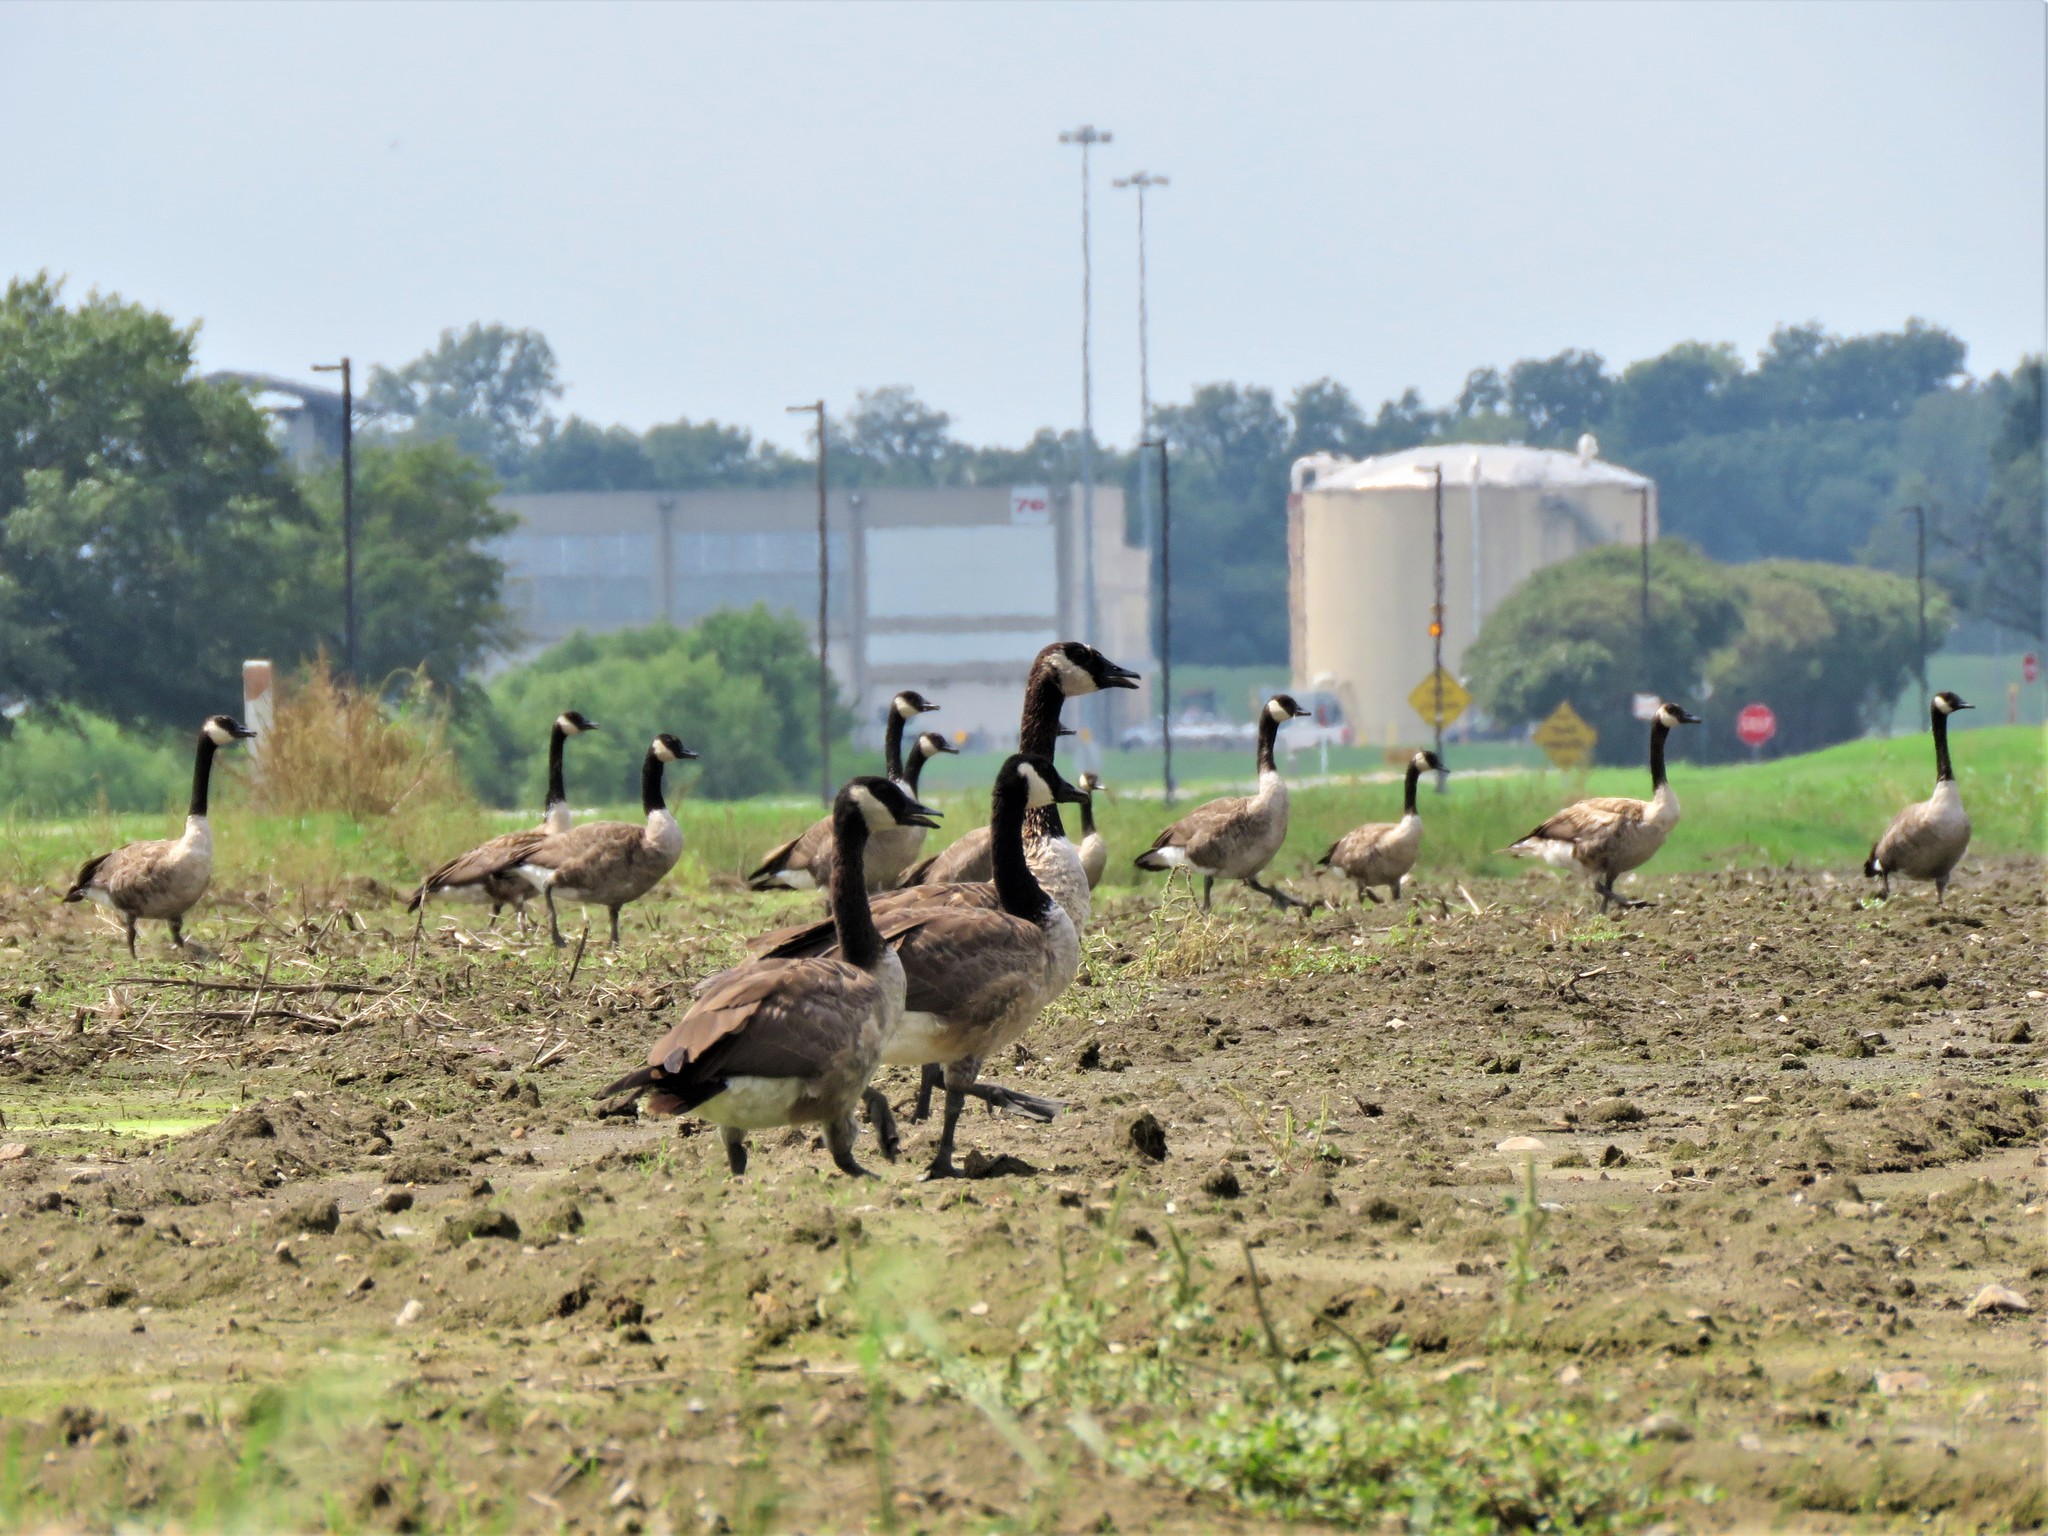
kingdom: Animalia
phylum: Chordata
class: Aves
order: Anseriformes
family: Anatidae
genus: Branta
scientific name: Branta canadensis
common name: Canada goose
